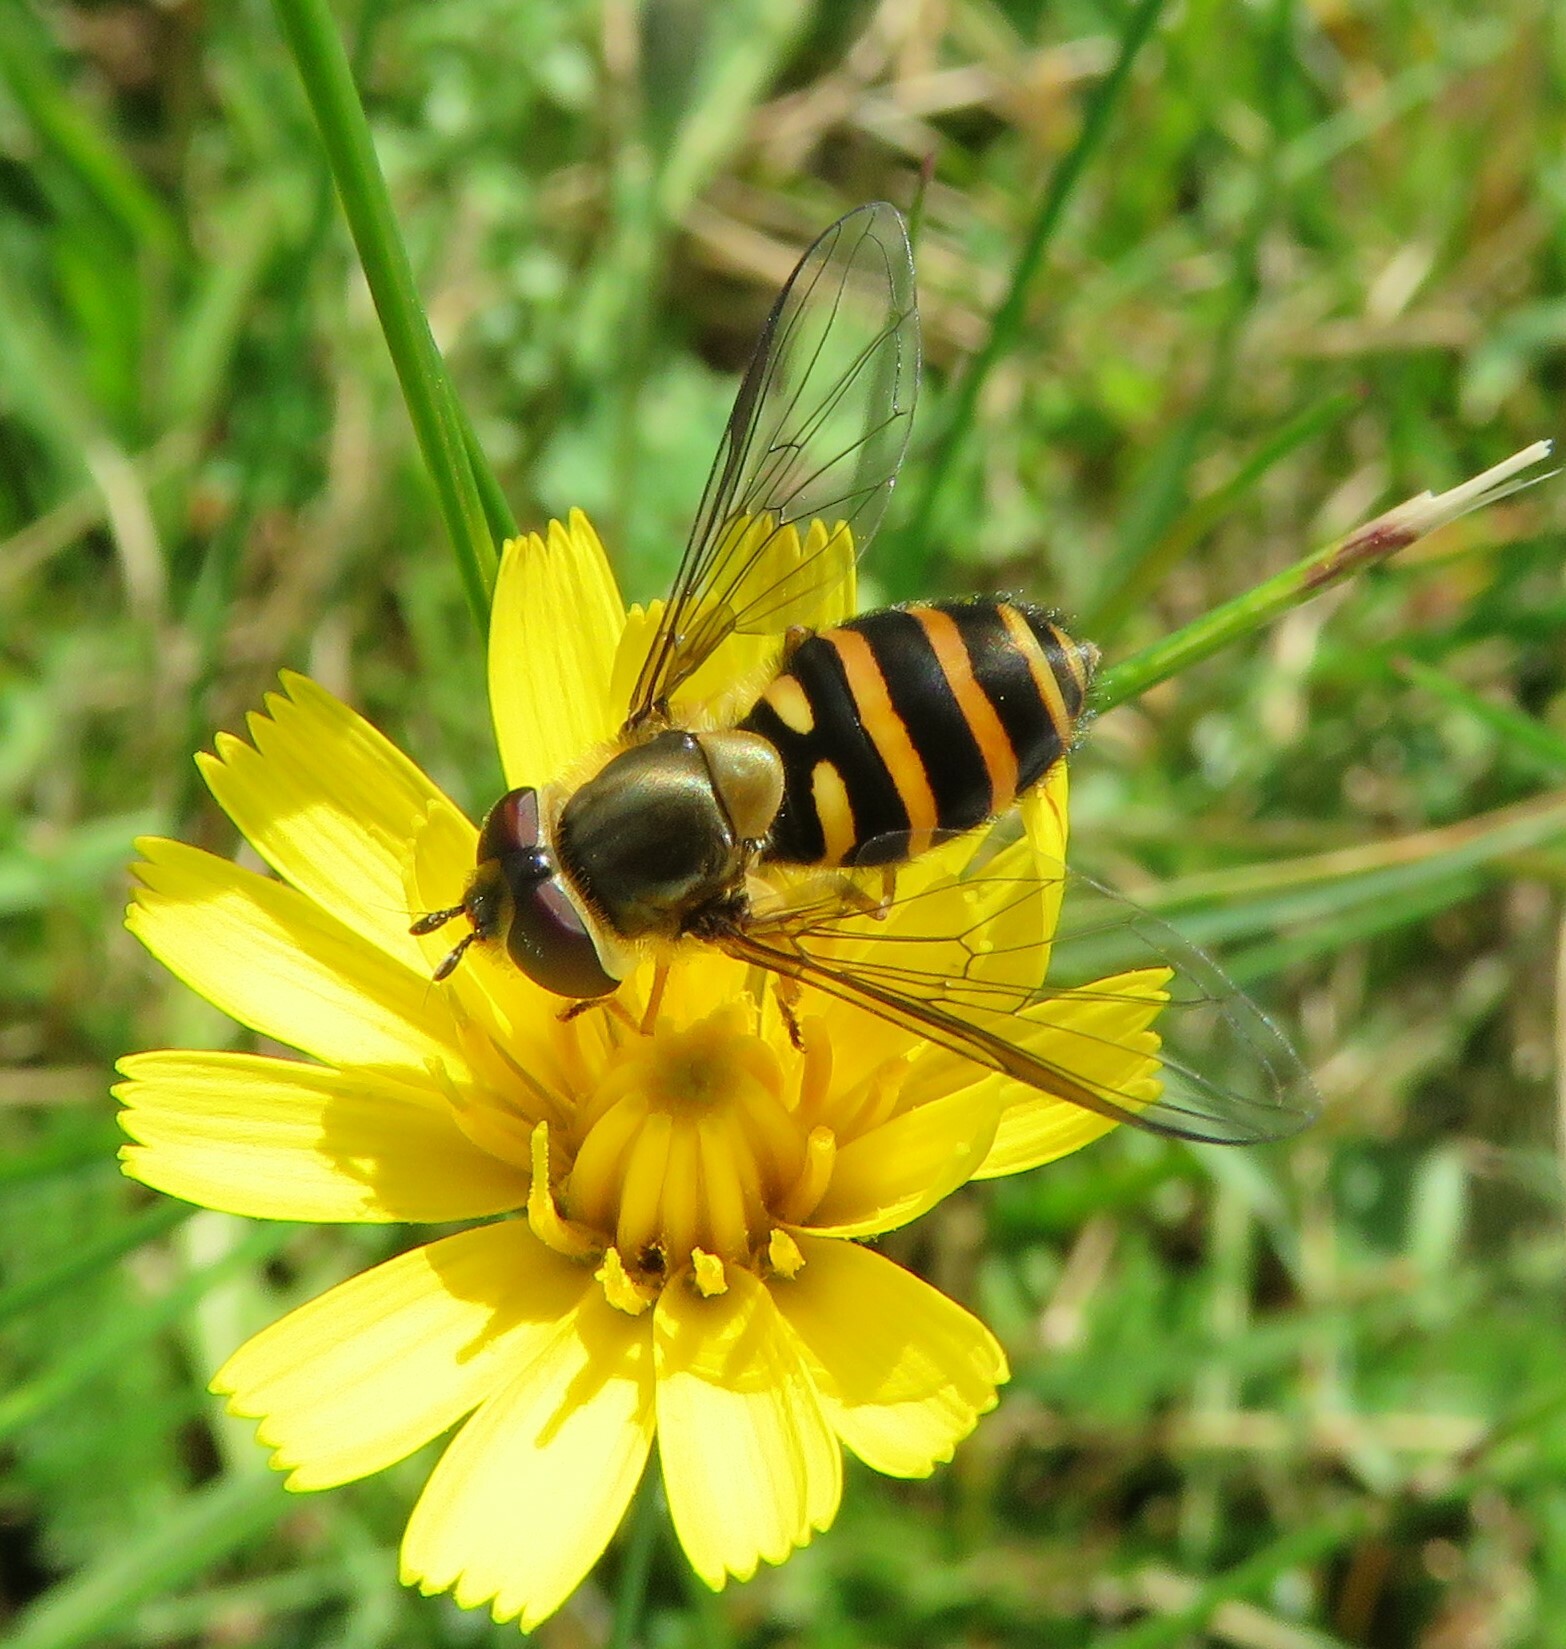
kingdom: Animalia
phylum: Arthropoda
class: Insecta
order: Diptera
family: Syrphidae
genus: Syrphus
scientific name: Syrphus torvus
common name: Hairy-eyed flower fly
